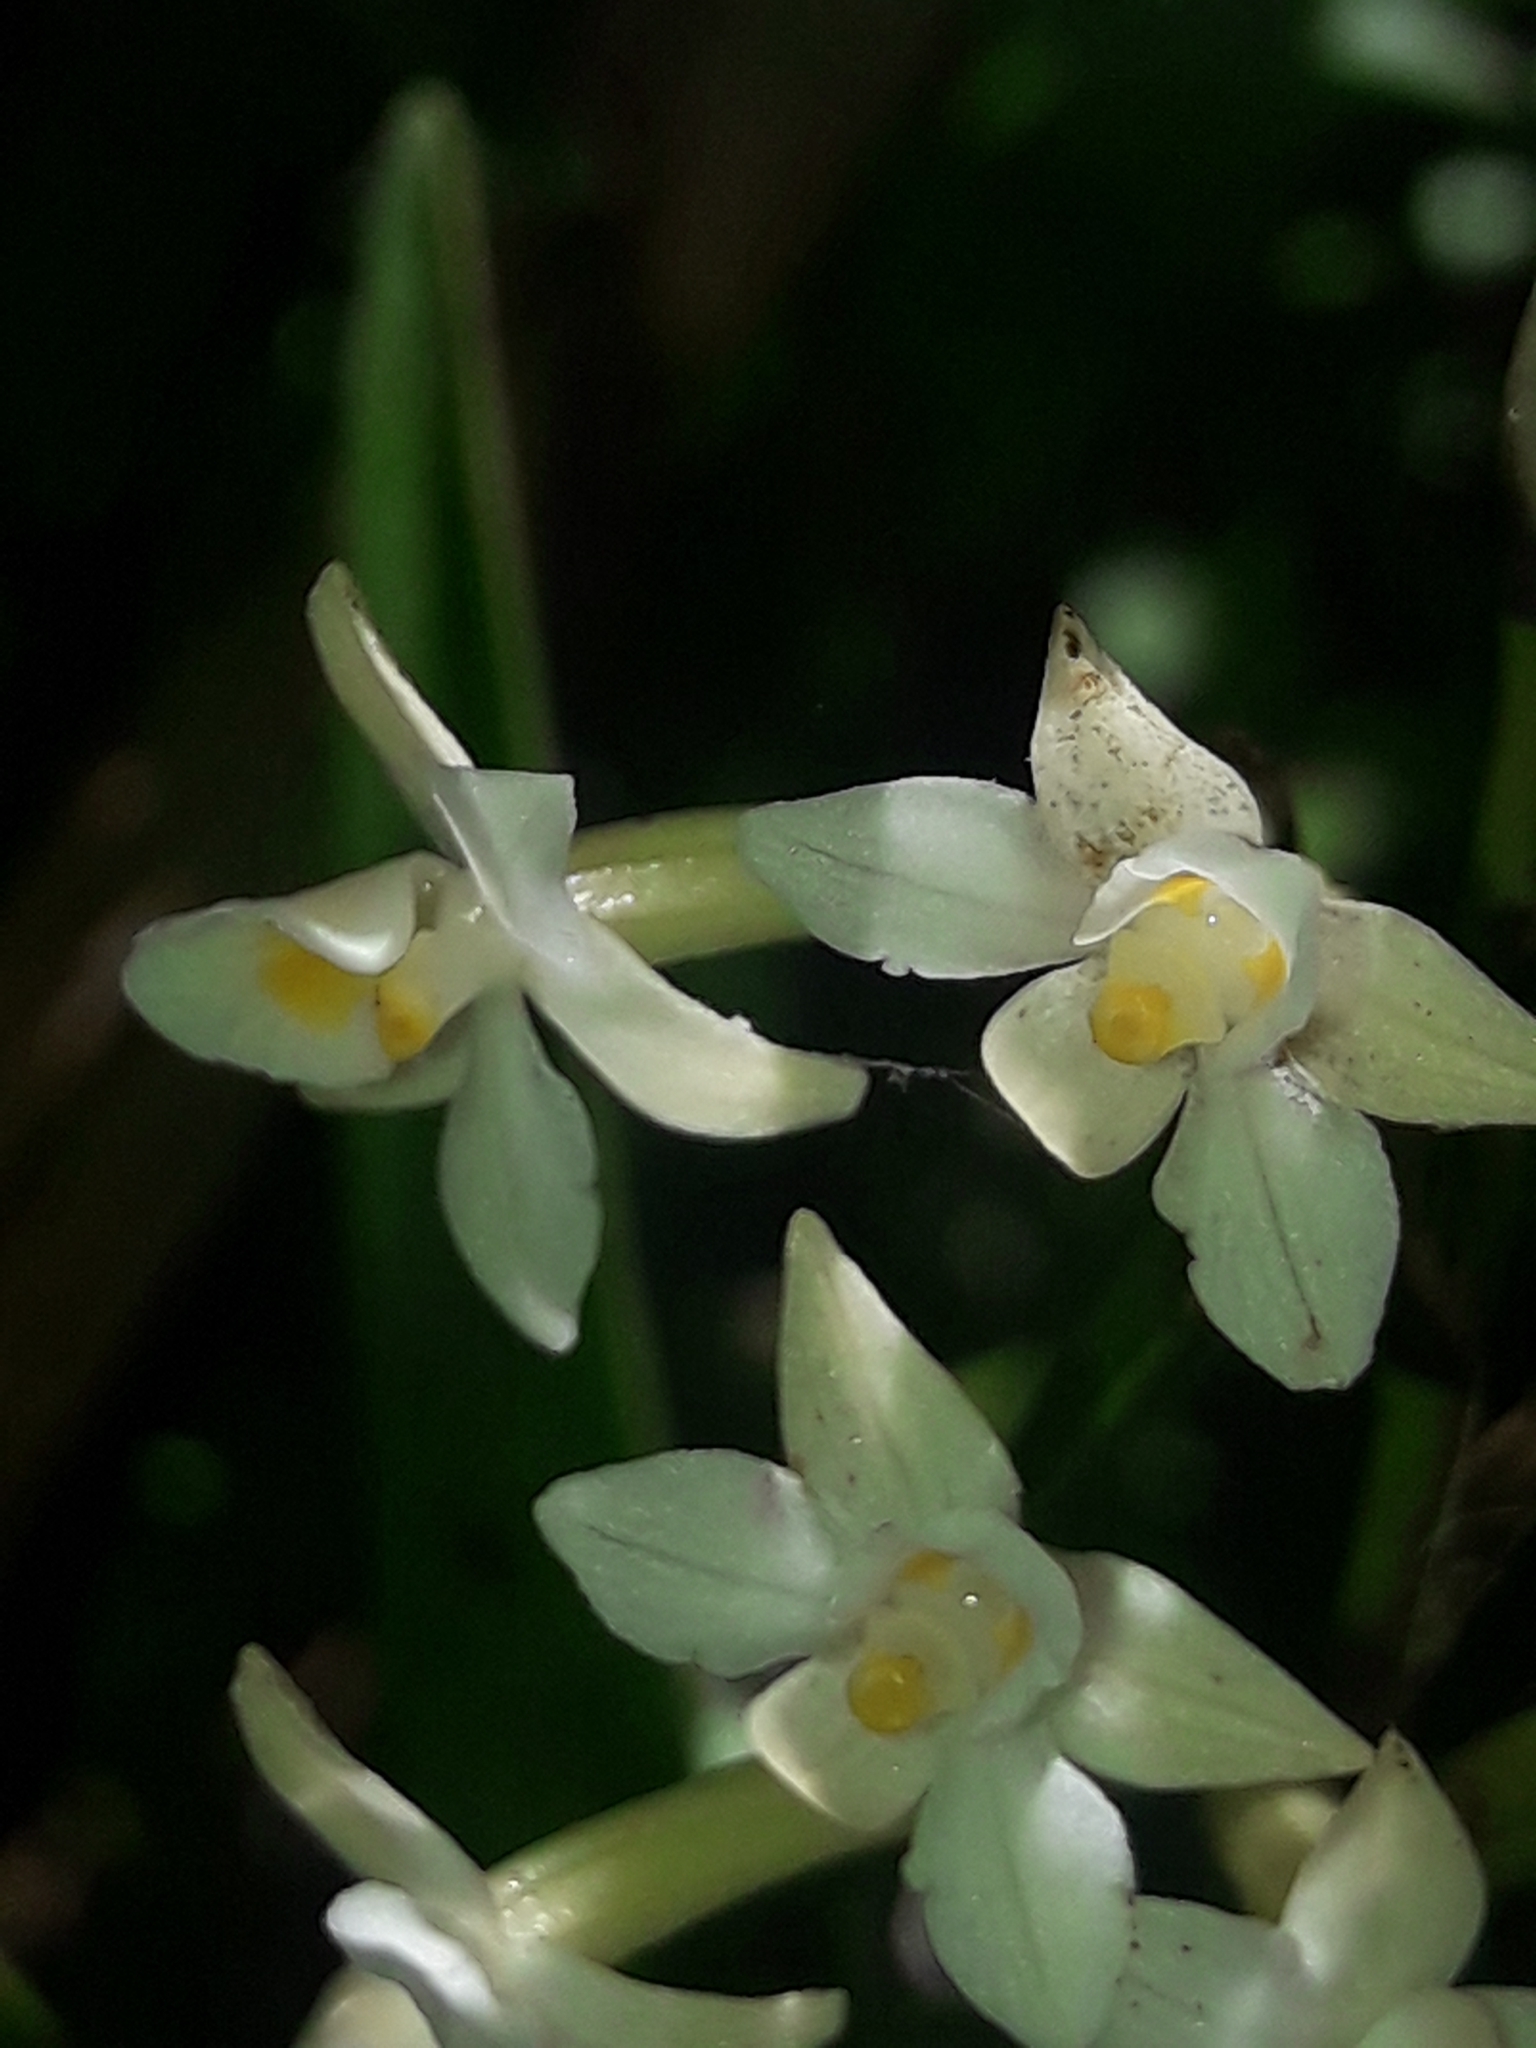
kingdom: Plantae
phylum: Tracheophyta
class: Liliopsida
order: Asparagales
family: Orchidaceae
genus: Earina
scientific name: Earina autumnalis
